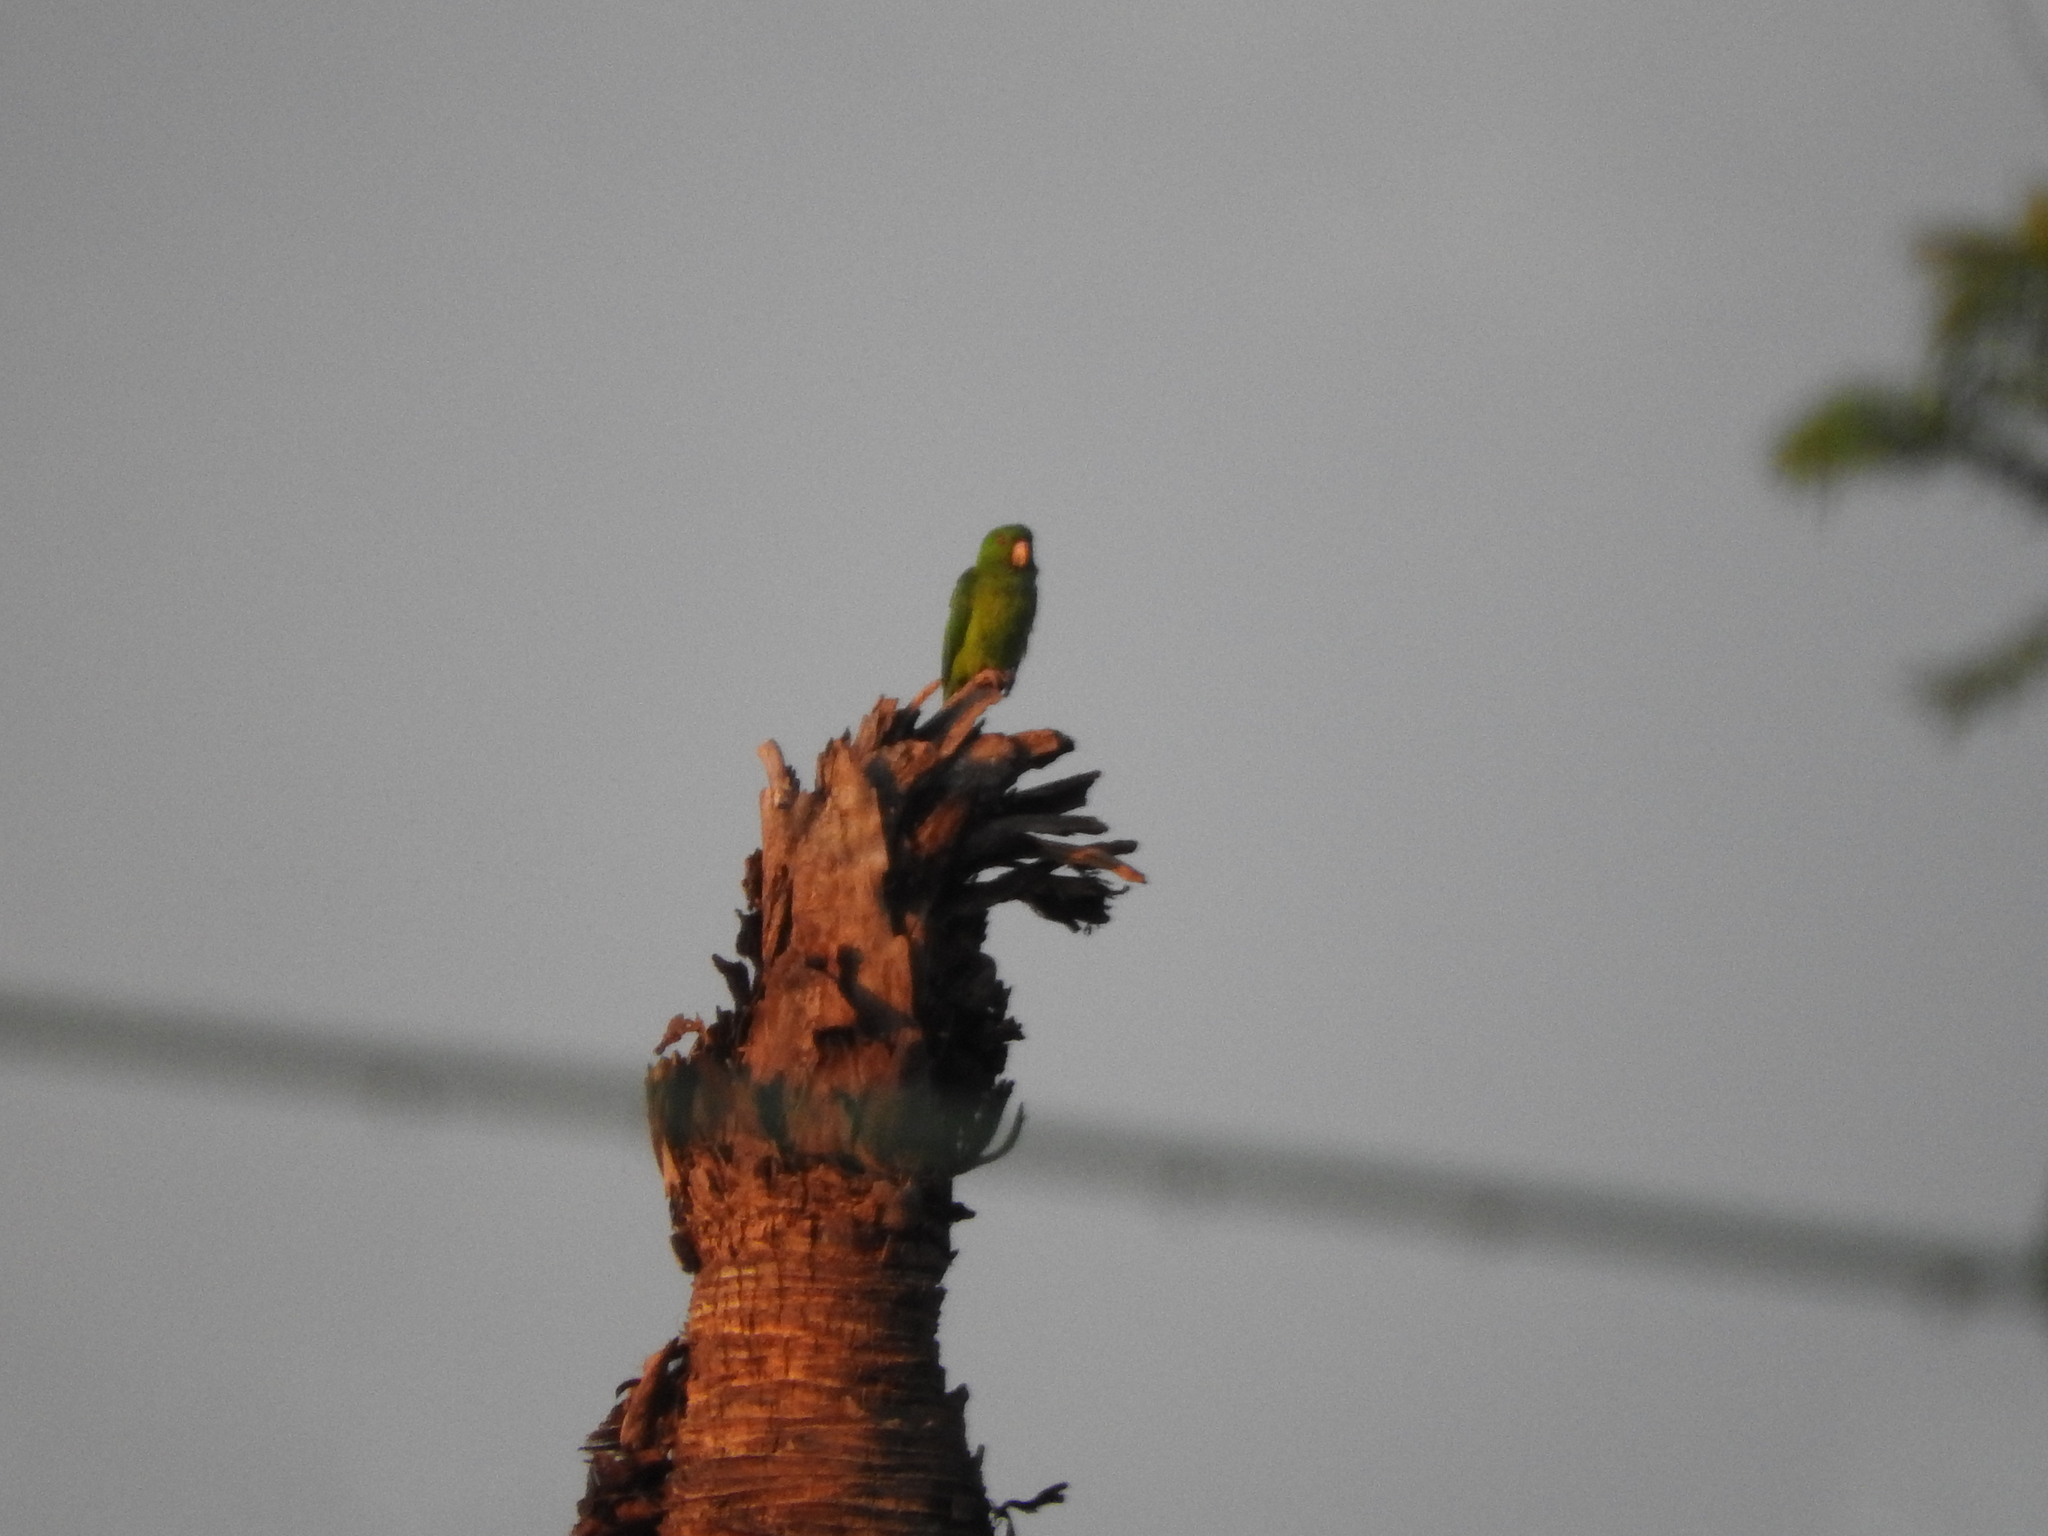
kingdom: Animalia
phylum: Chordata
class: Aves
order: Psittaciformes
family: Psittacidae
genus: Aratinga
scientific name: Aratinga holochlora
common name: Green parakeet
